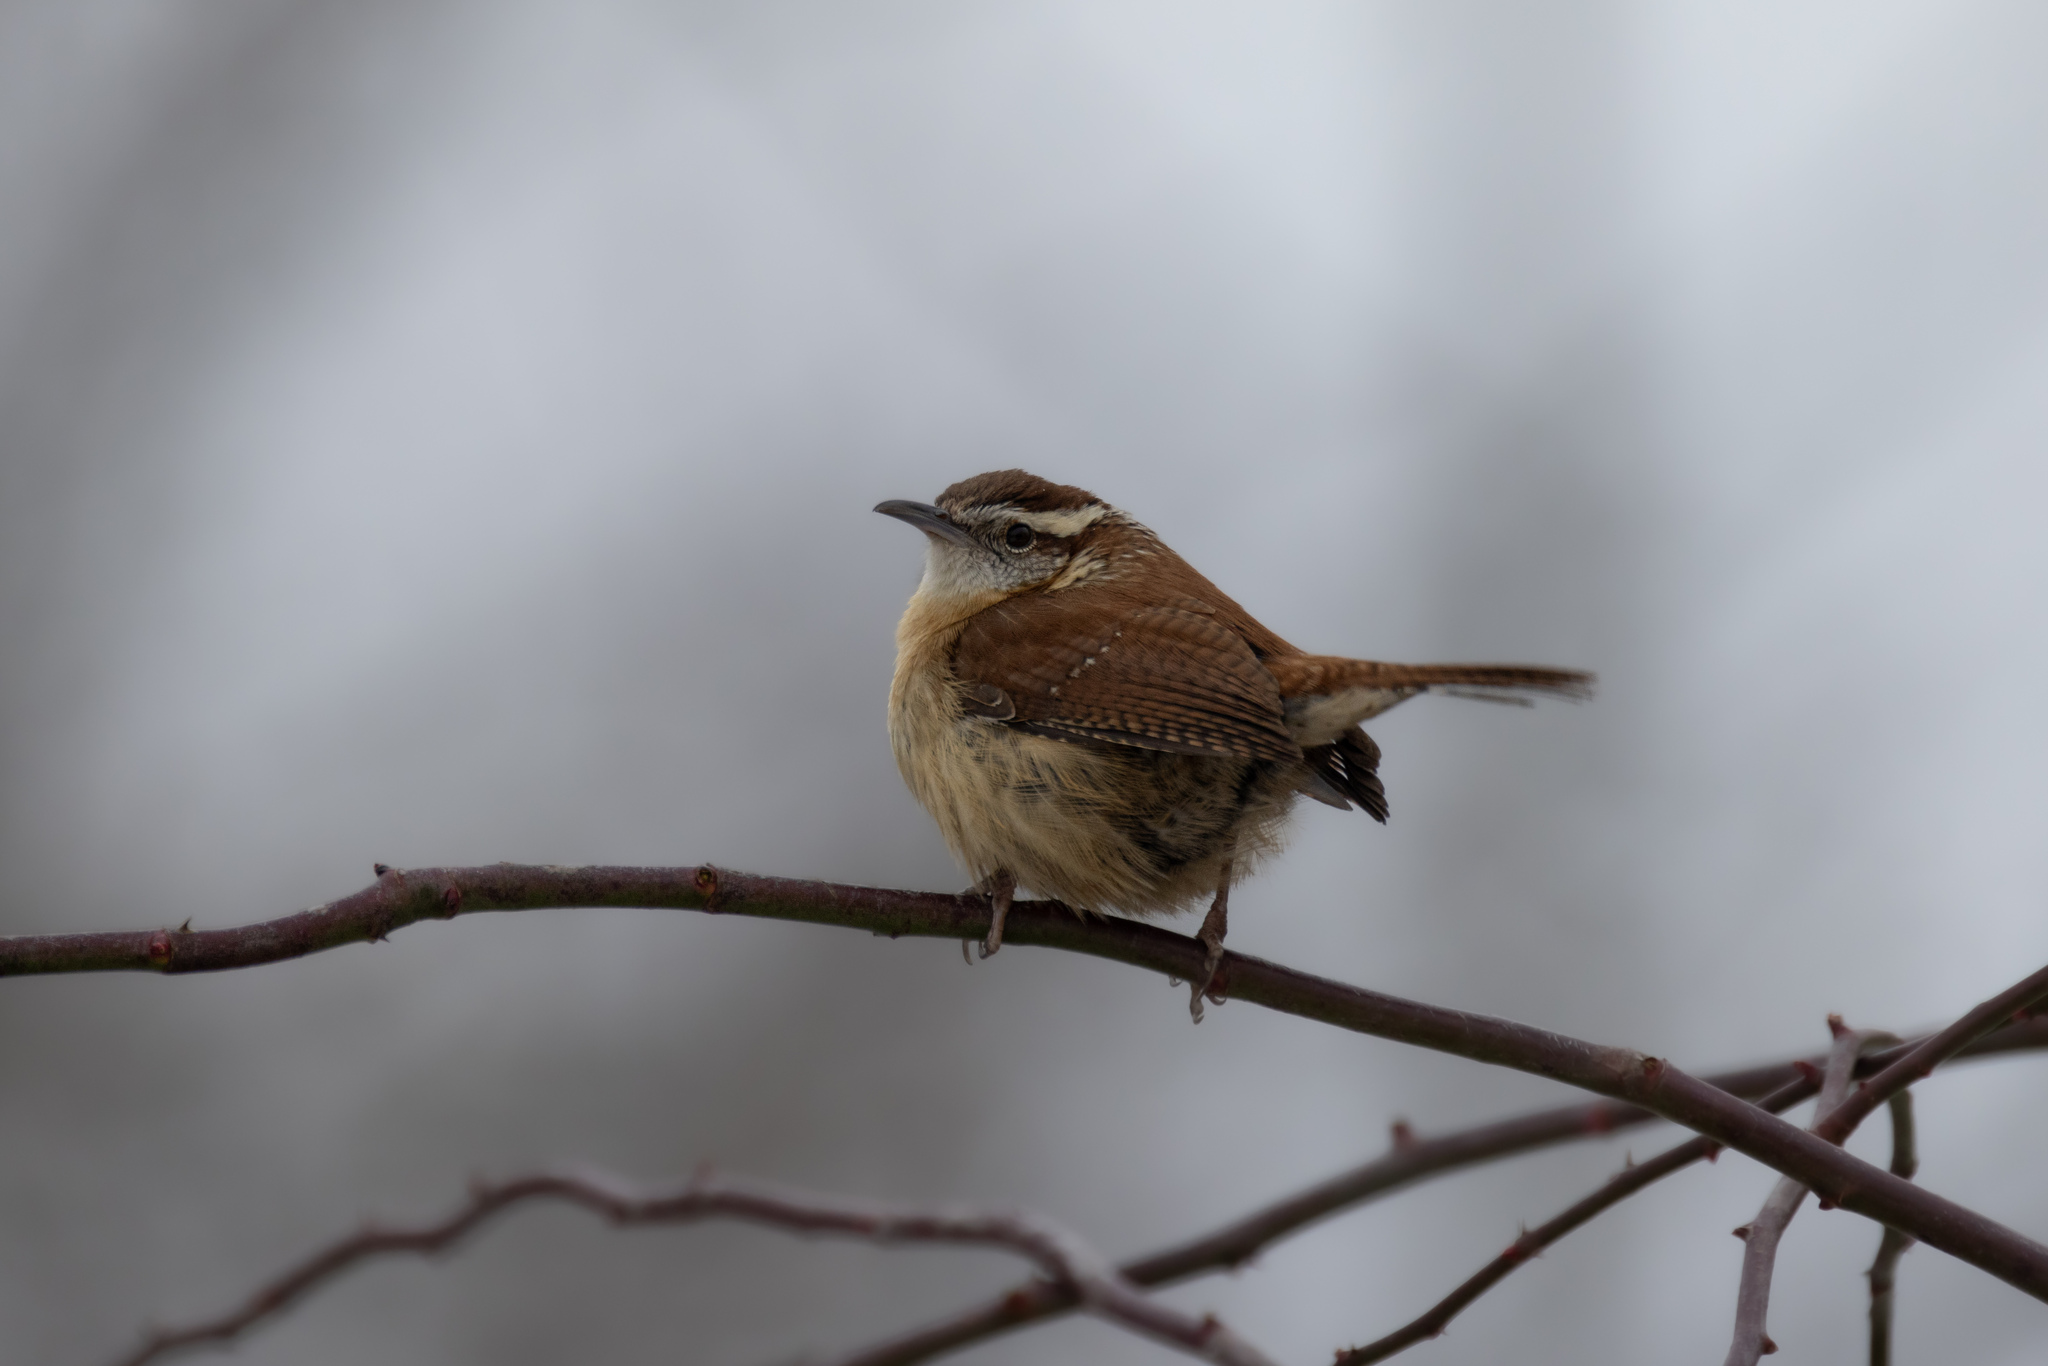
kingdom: Animalia
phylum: Chordata
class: Aves
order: Passeriformes
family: Troglodytidae
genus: Thryothorus
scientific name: Thryothorus ludovicianus
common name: Carolina wren
